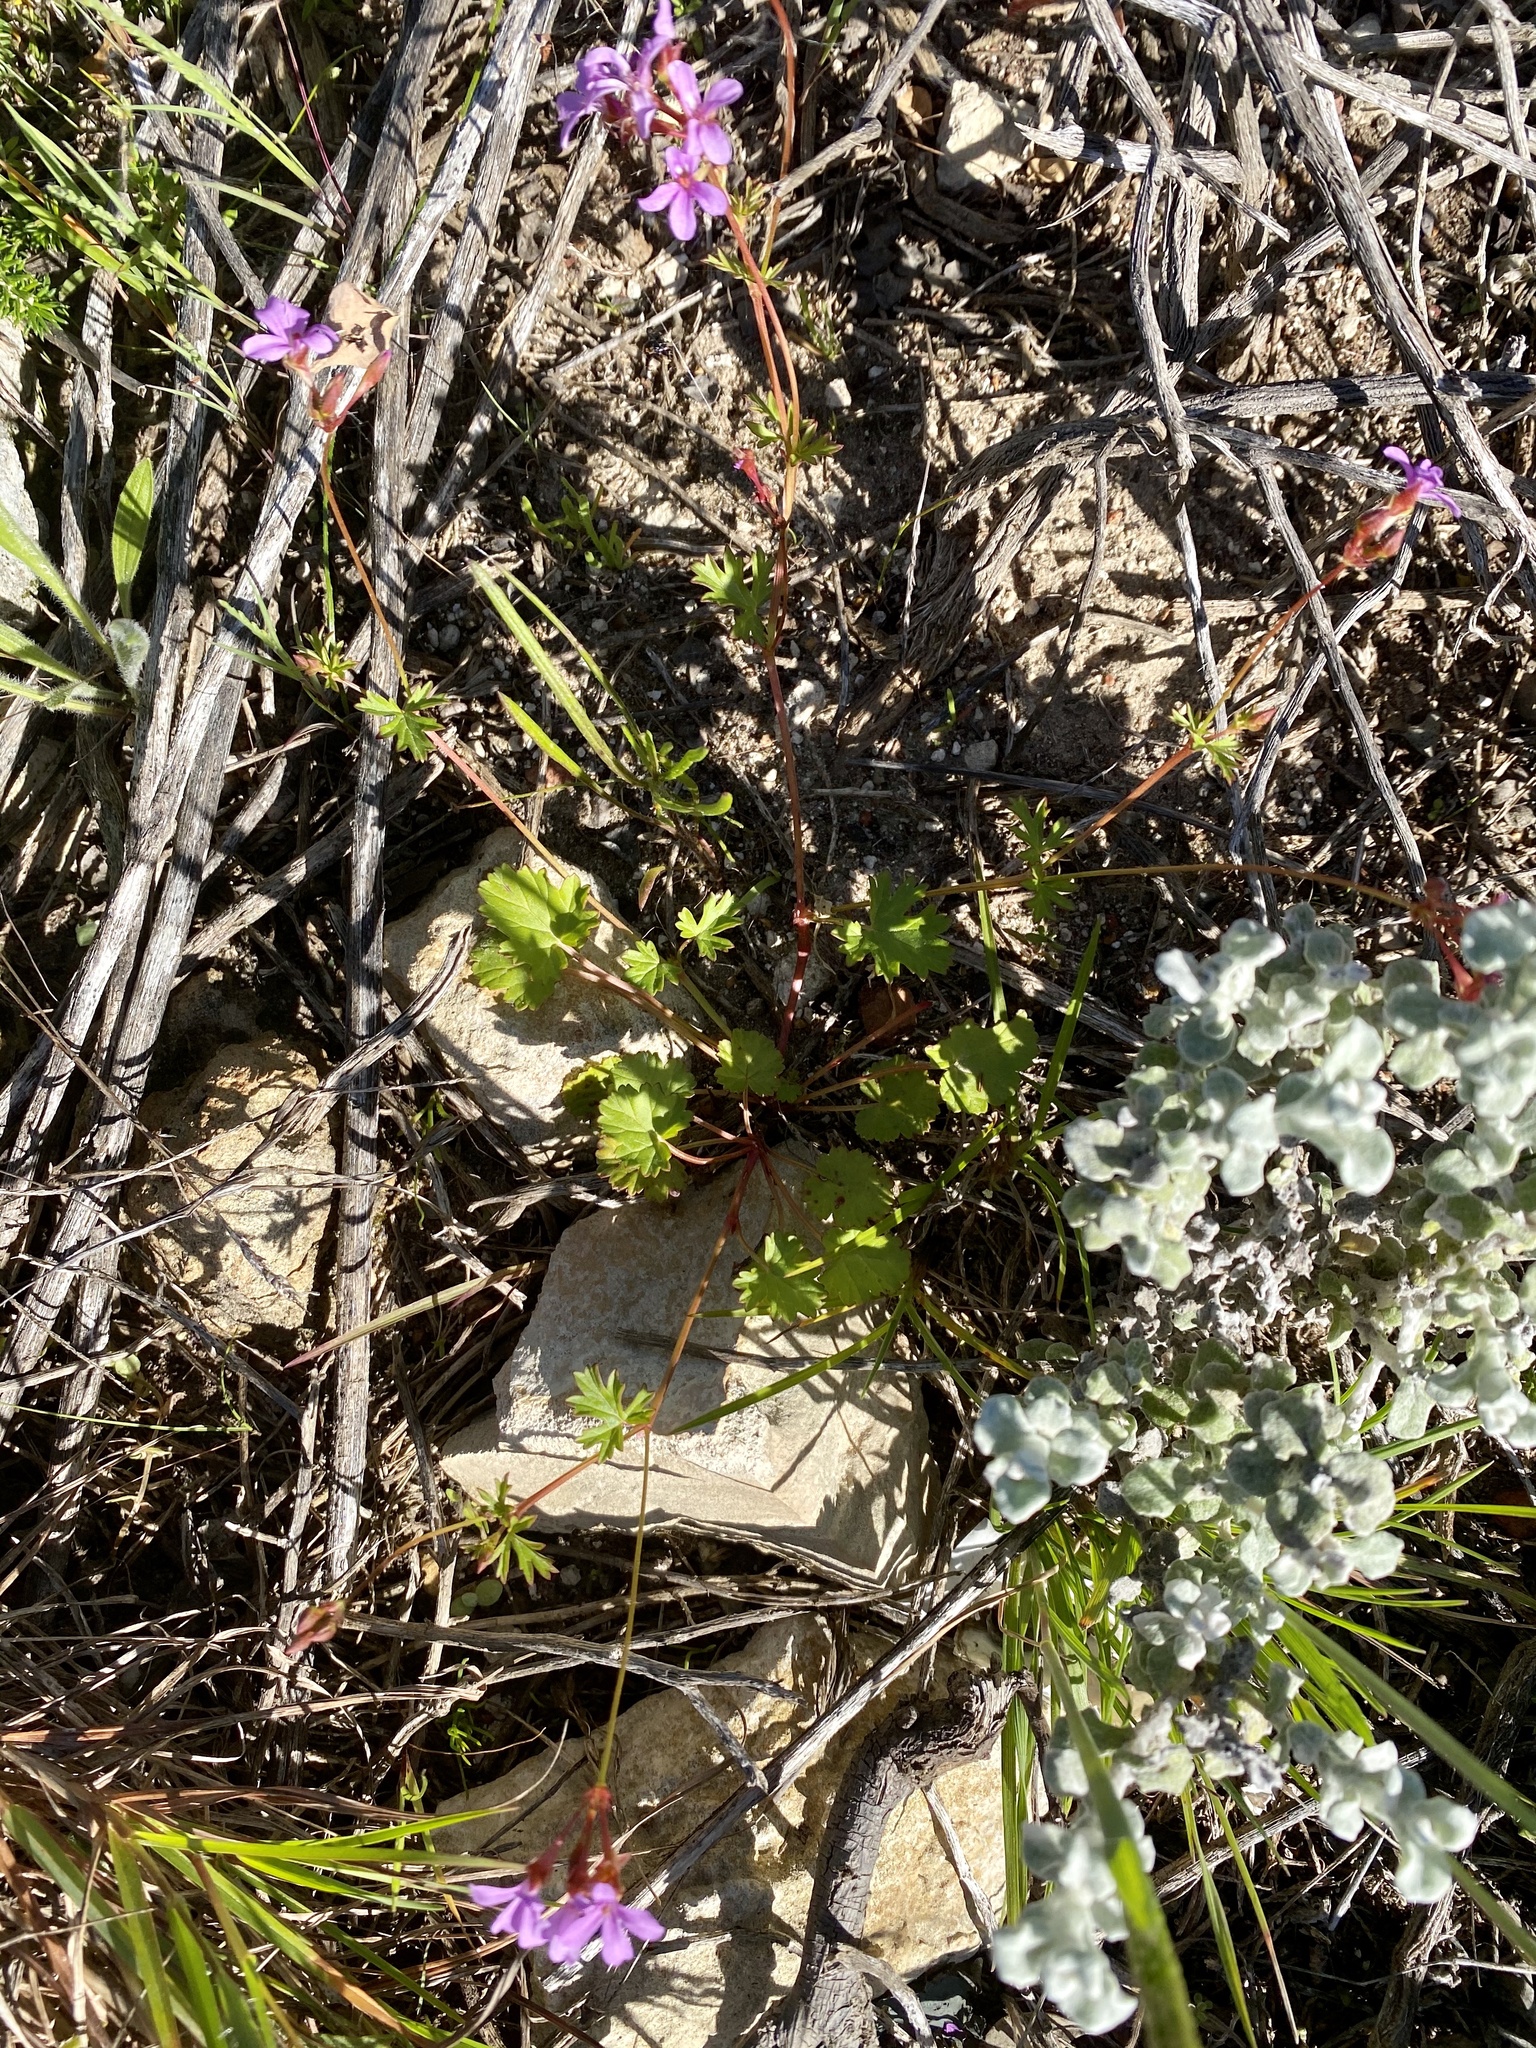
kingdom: Plantae
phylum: Tracheophyta
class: Magnoliopsida
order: Geraniales
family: Geraniaceae
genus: Pelargonium
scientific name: Pelargonium grossularioides
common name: Gooseberry geranium
